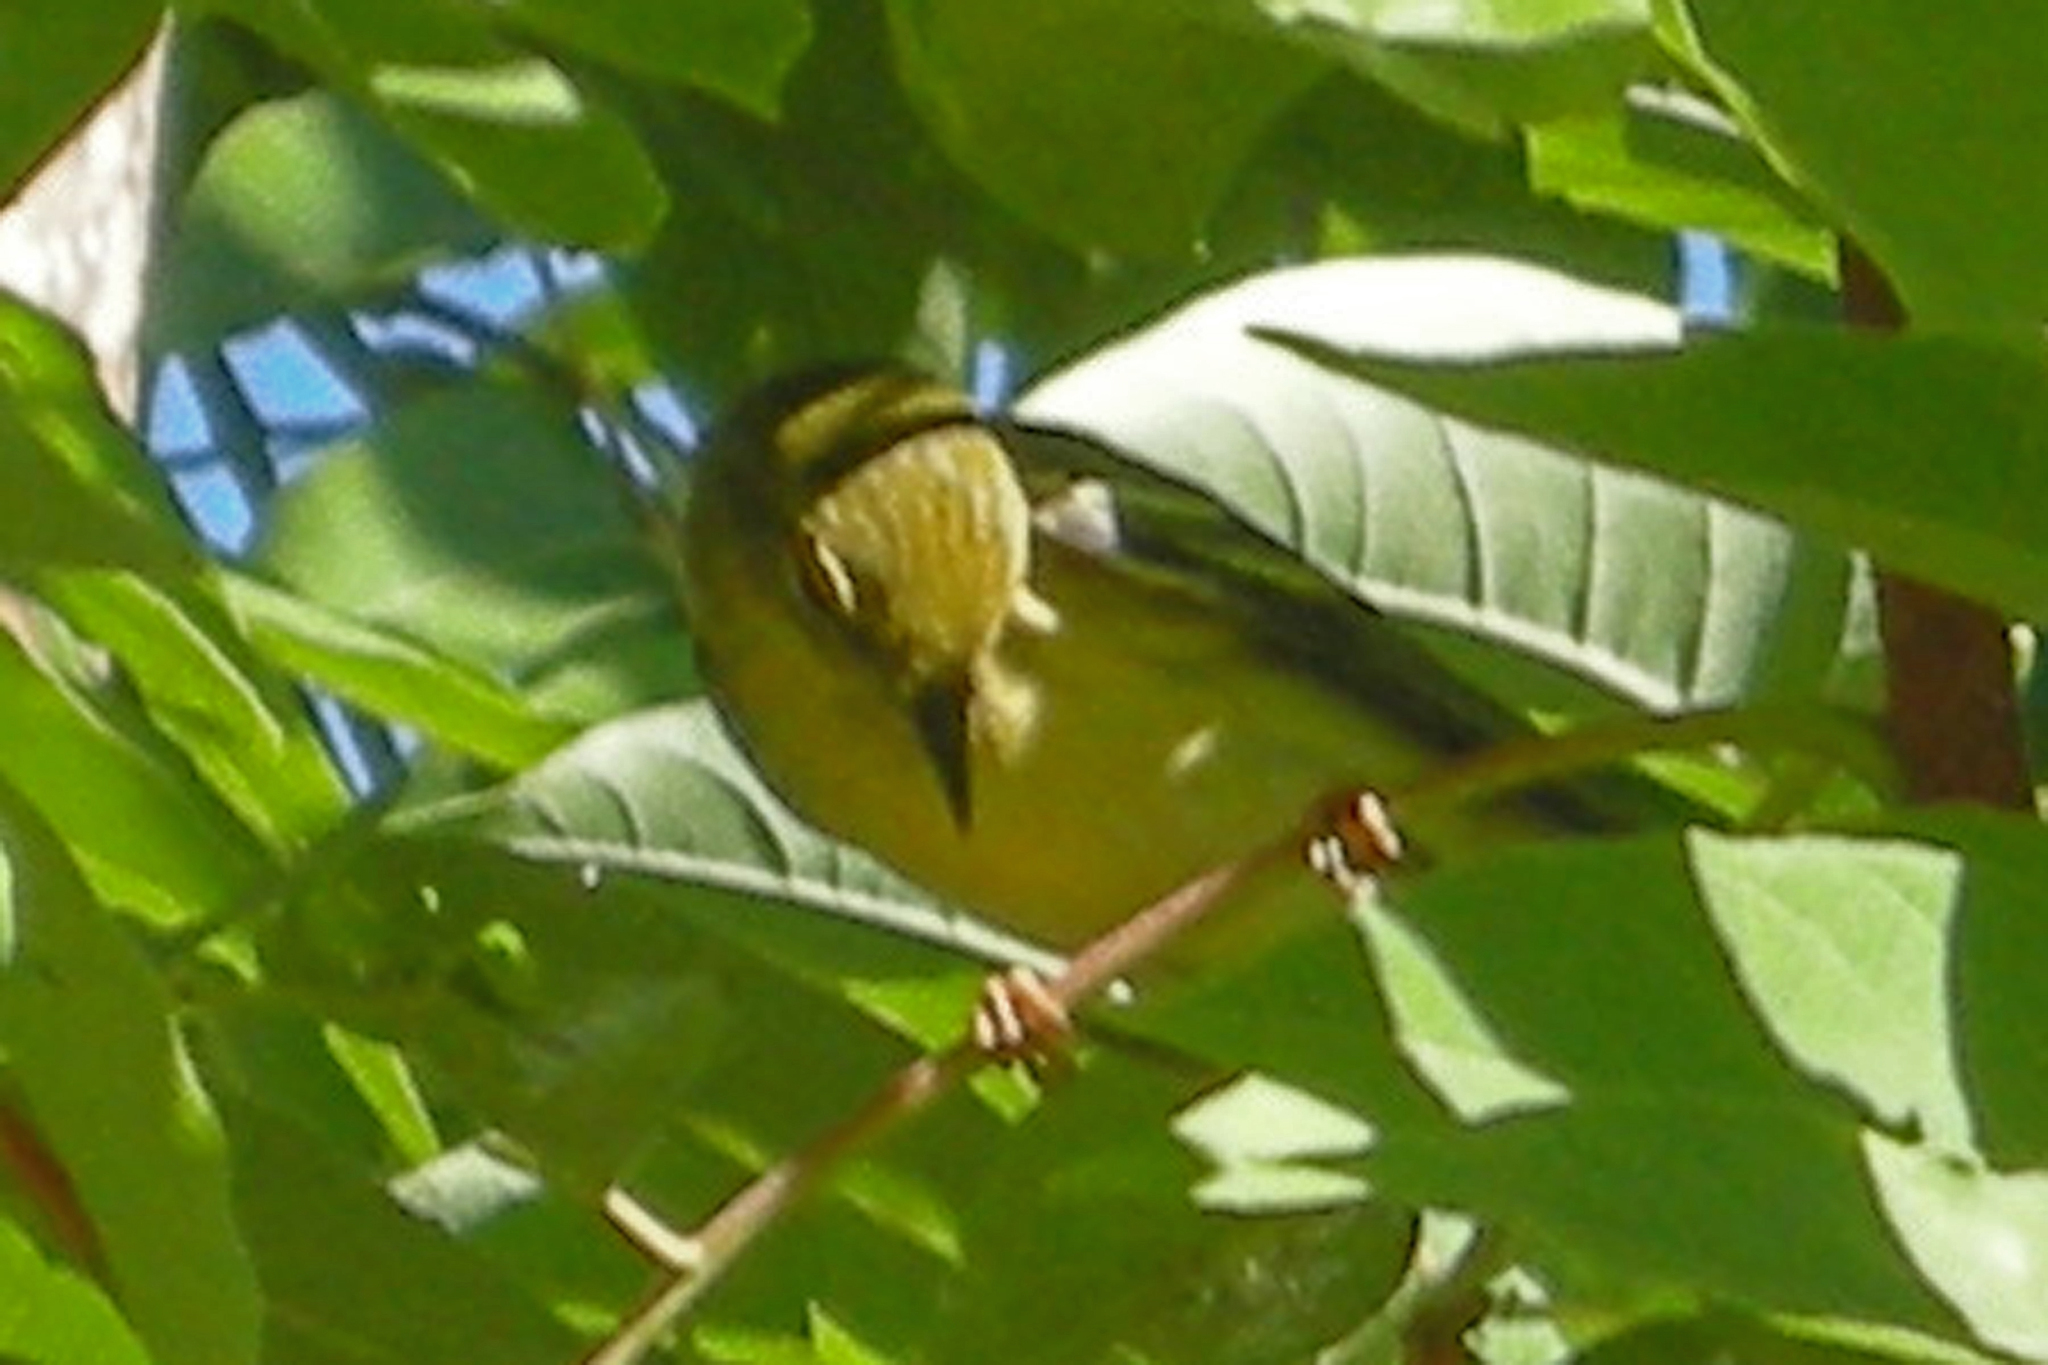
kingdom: Animalia
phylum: Chordata
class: Aves
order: Passeriformes
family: Parulidae
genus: Setophaga
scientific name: Setophaga striata
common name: Blackpoll warbler
